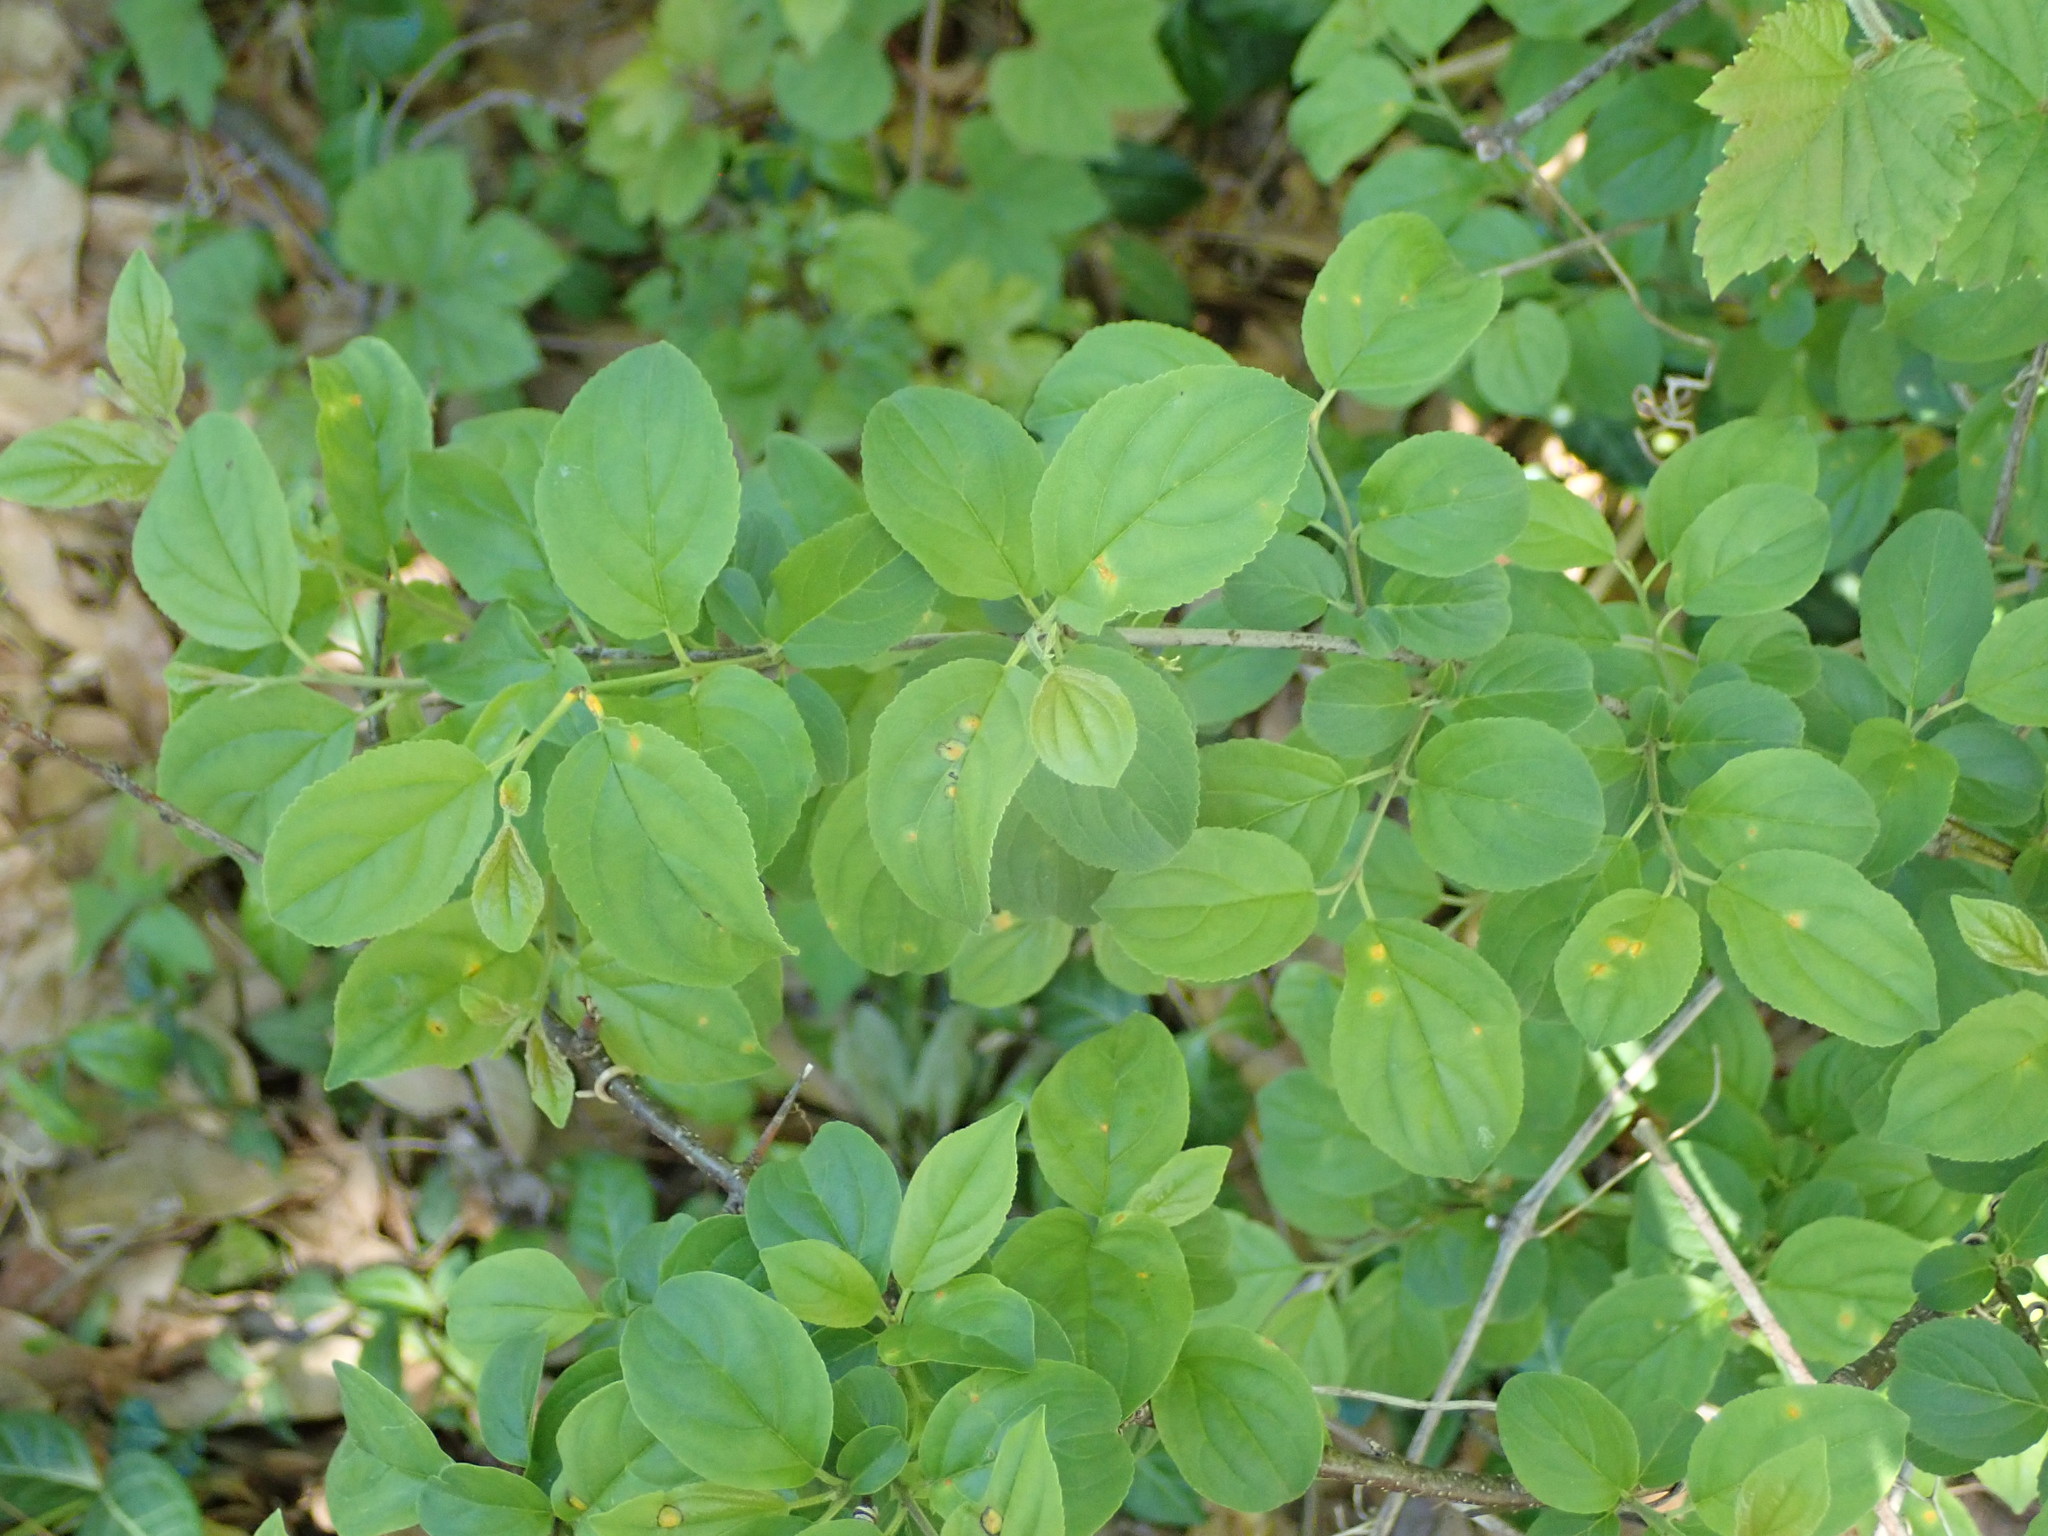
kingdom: Plantae
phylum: Tracheophyta
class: Magnoliopsida
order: Rosales
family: Rhamnaceae
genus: Rhamnus
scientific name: Rhamnus cathartica
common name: Common buckthorn
